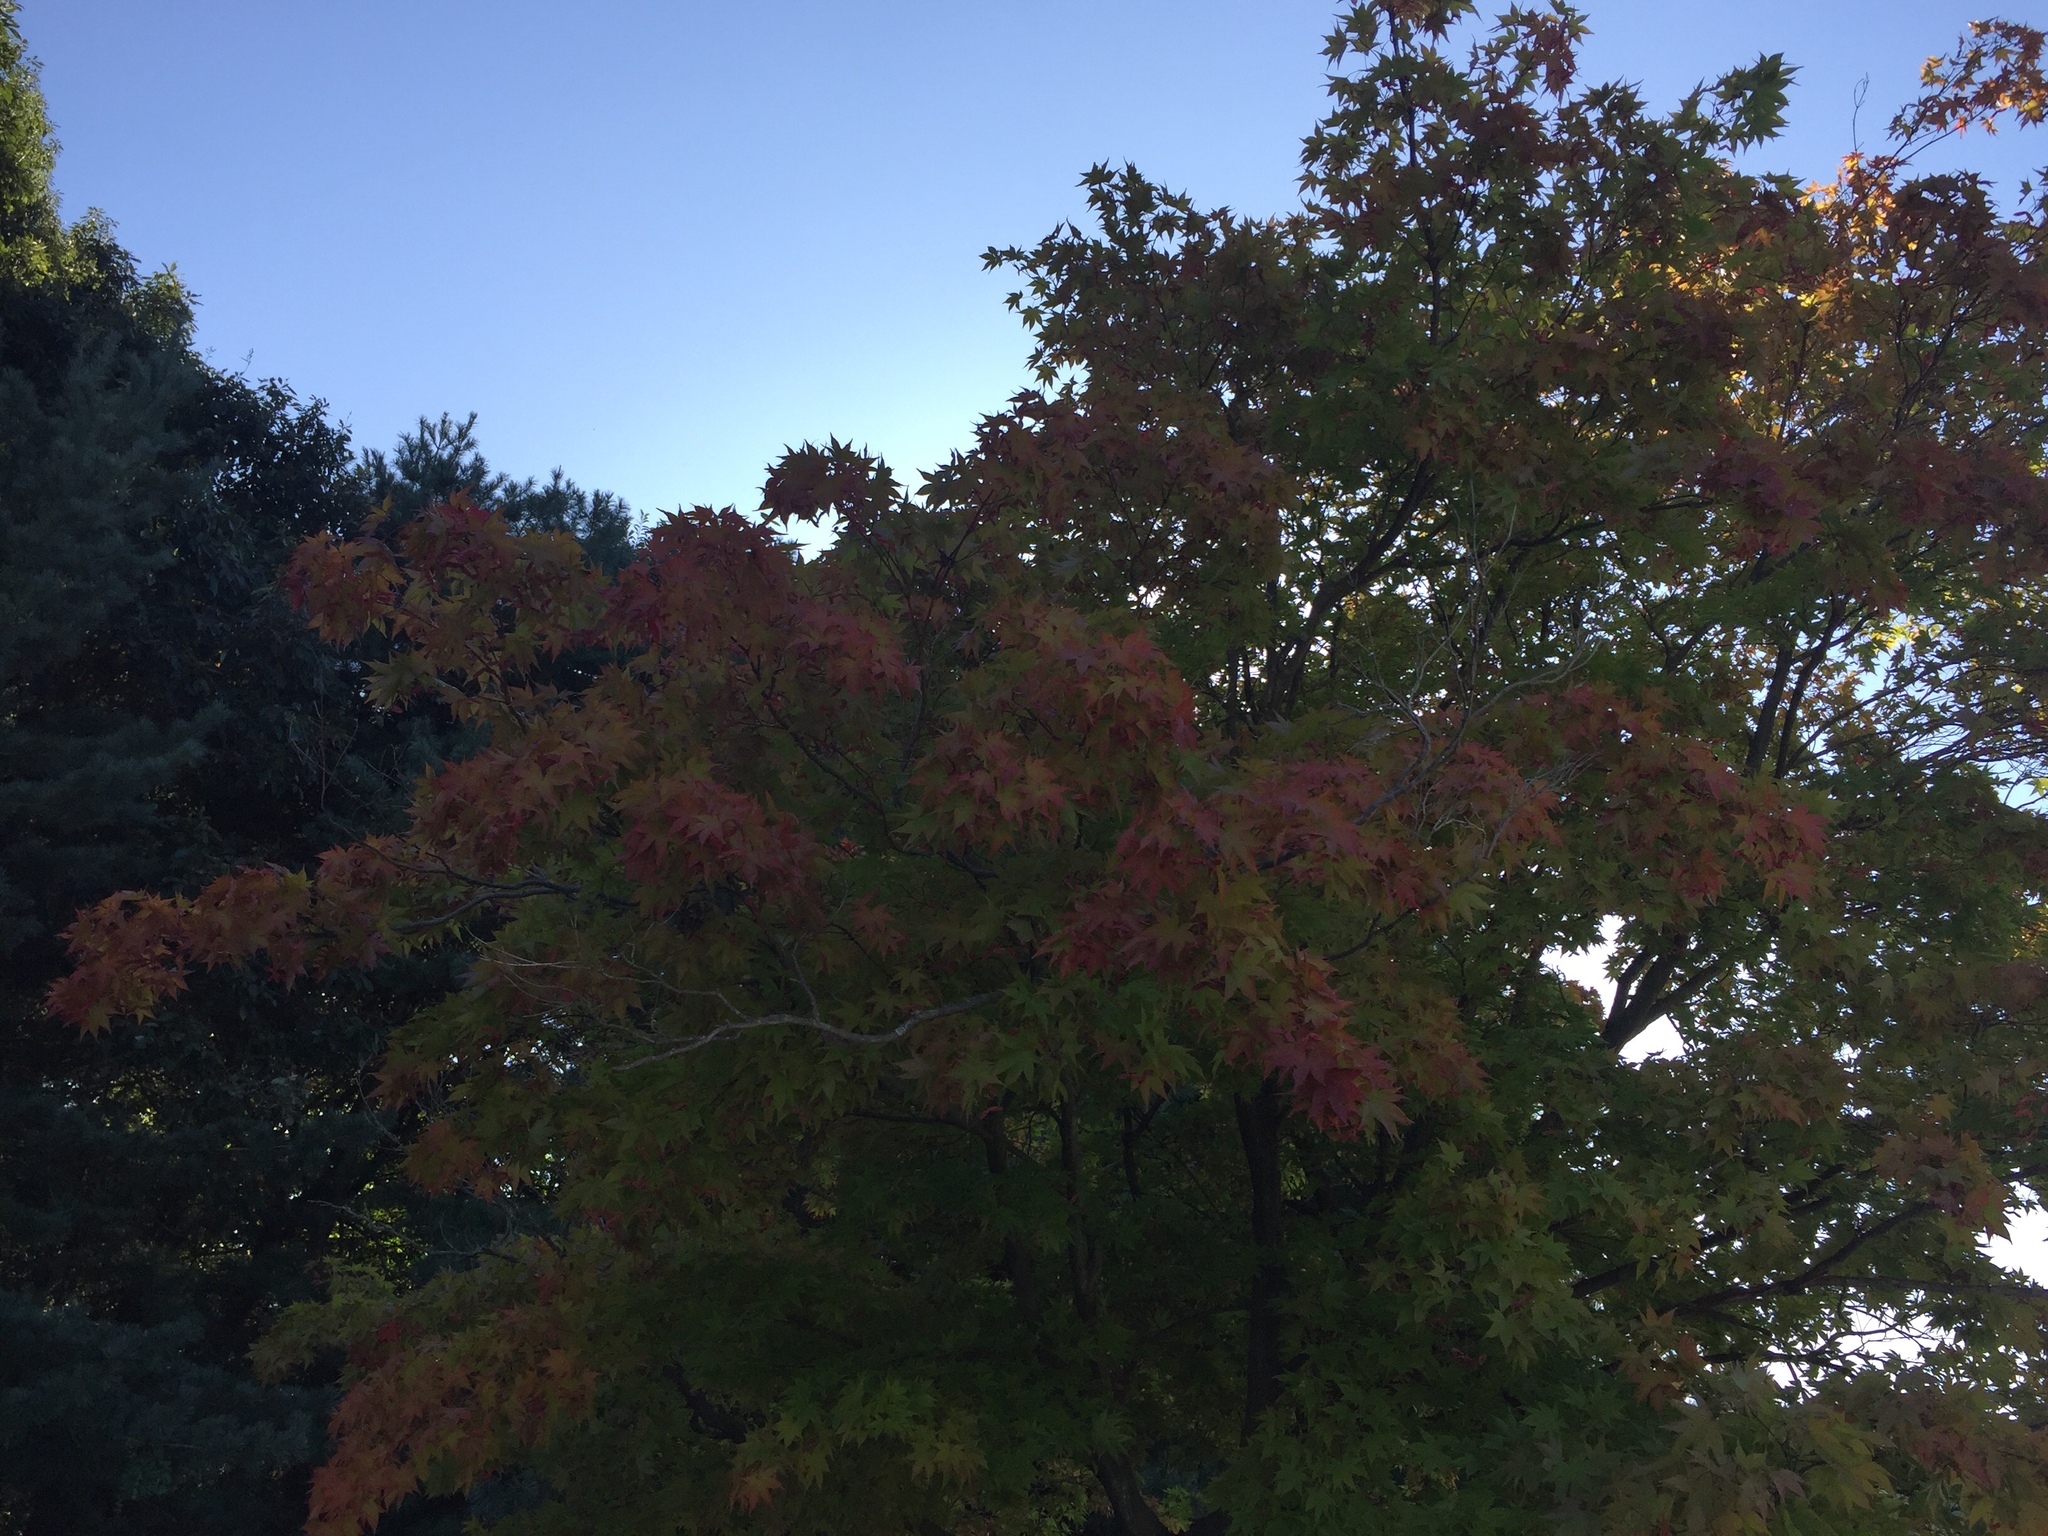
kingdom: Plantae
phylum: Tracheophyta
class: Magnoliopsida
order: Sapindales
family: Sapindaceae
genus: Acer
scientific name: Acer palmatum
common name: Japanese maple
